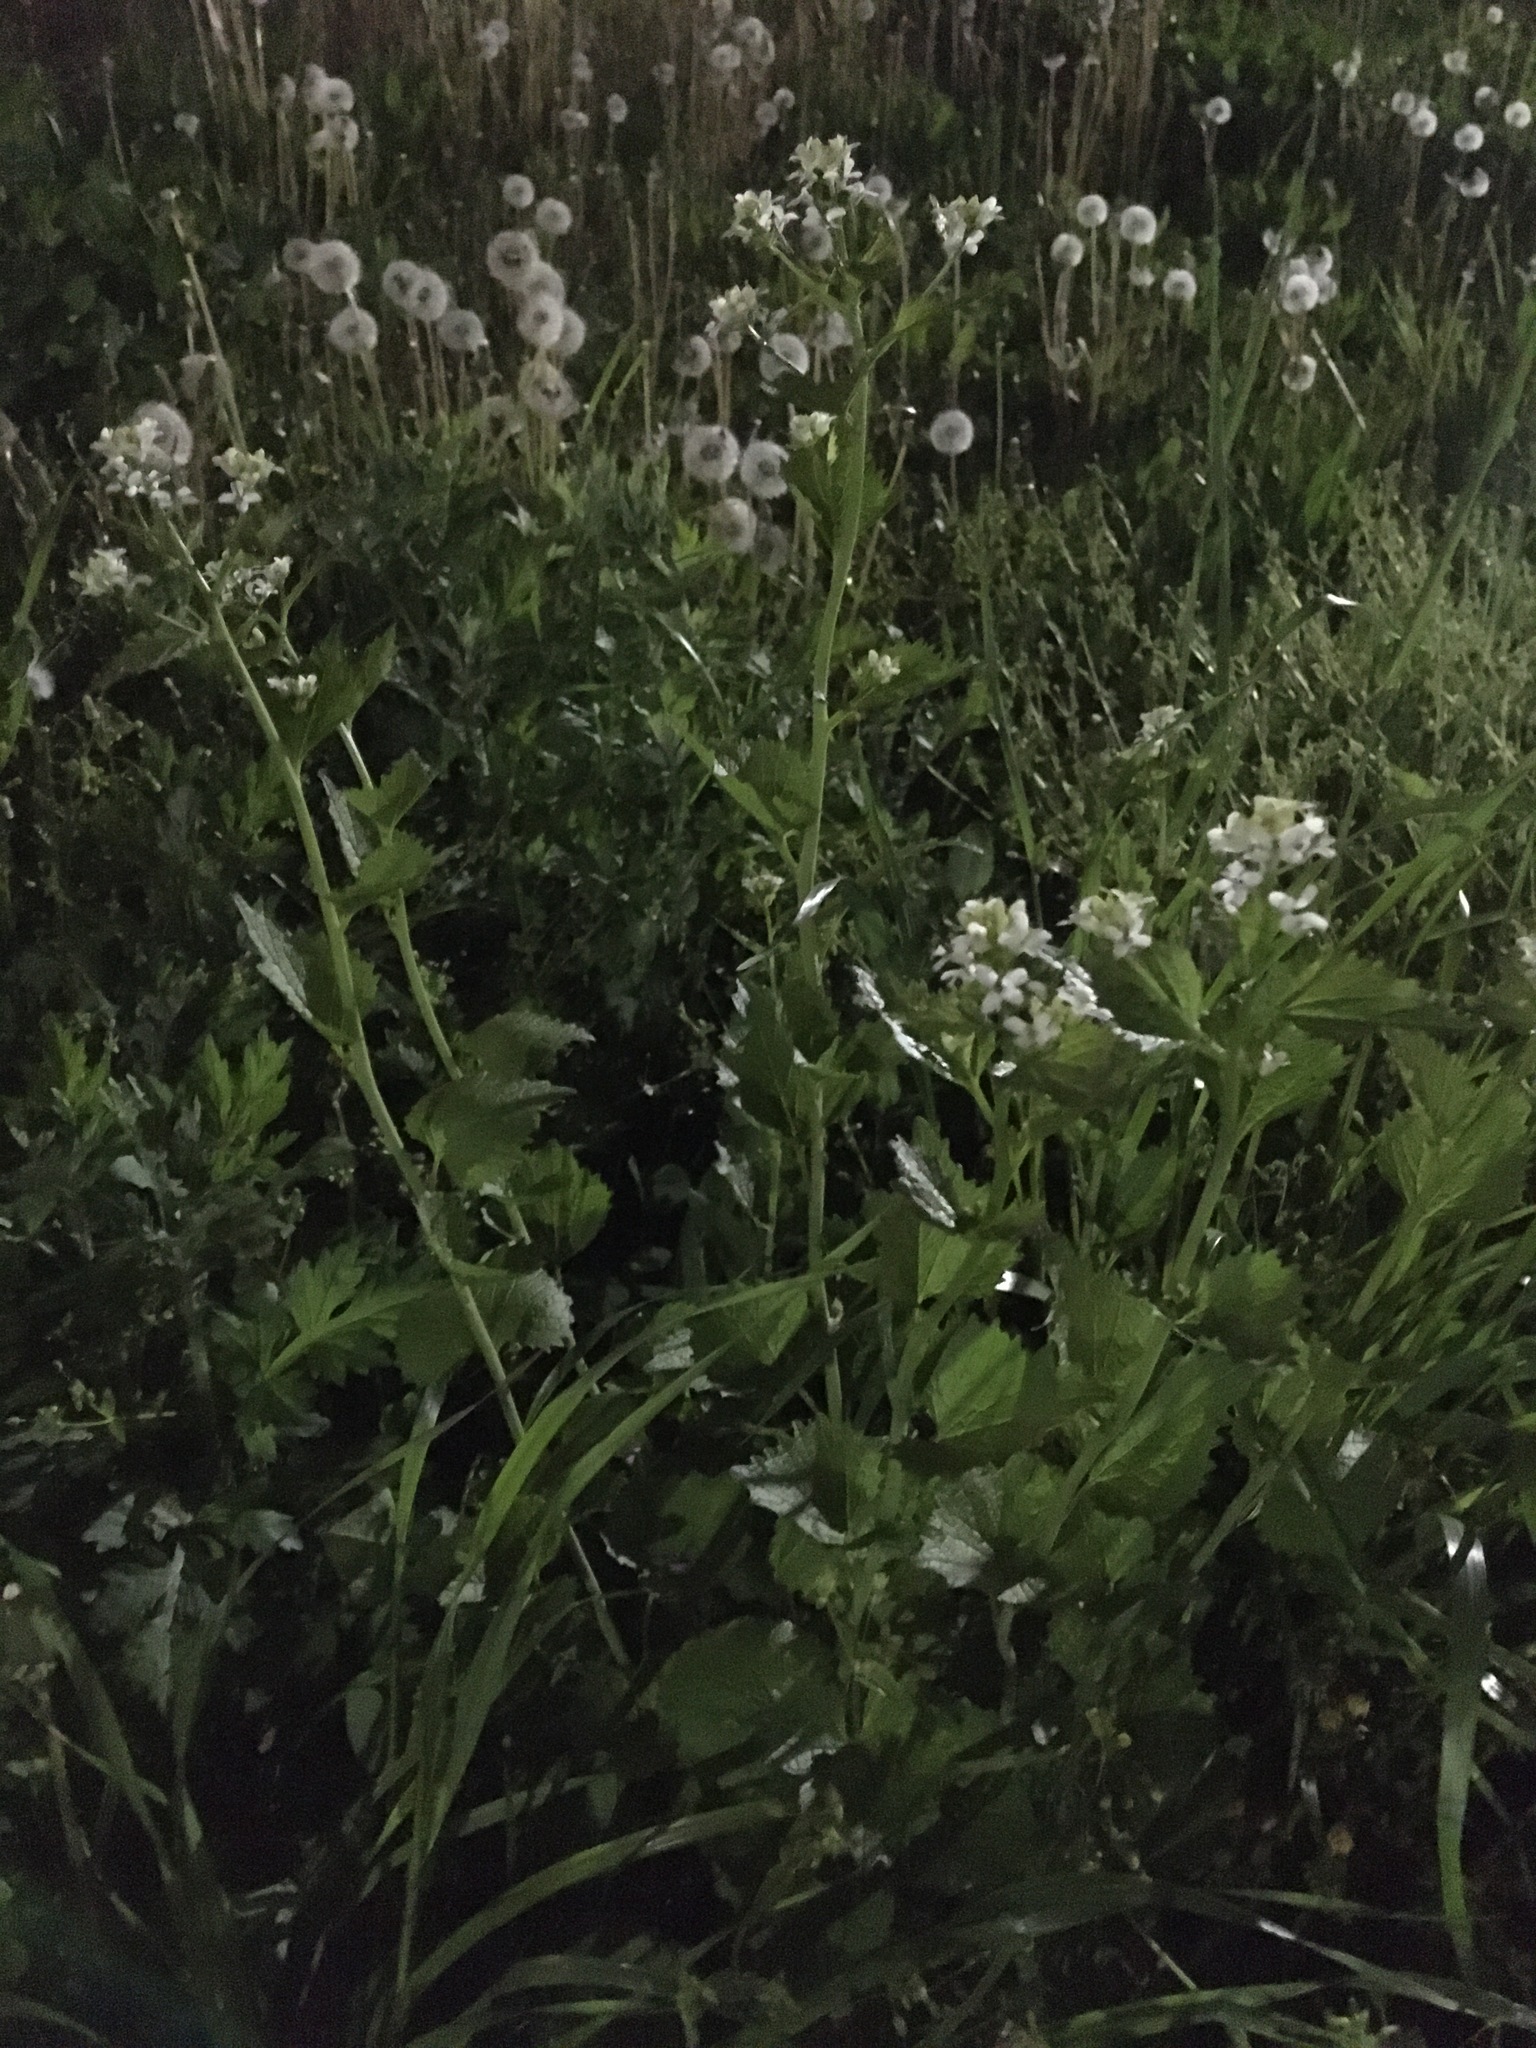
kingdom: Plantae
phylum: Tracheophyta
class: Magnoliopsida
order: Brassicales
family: Brassicaceae
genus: Alliaria
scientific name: Alliaria petiolata
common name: Garlic mustard
